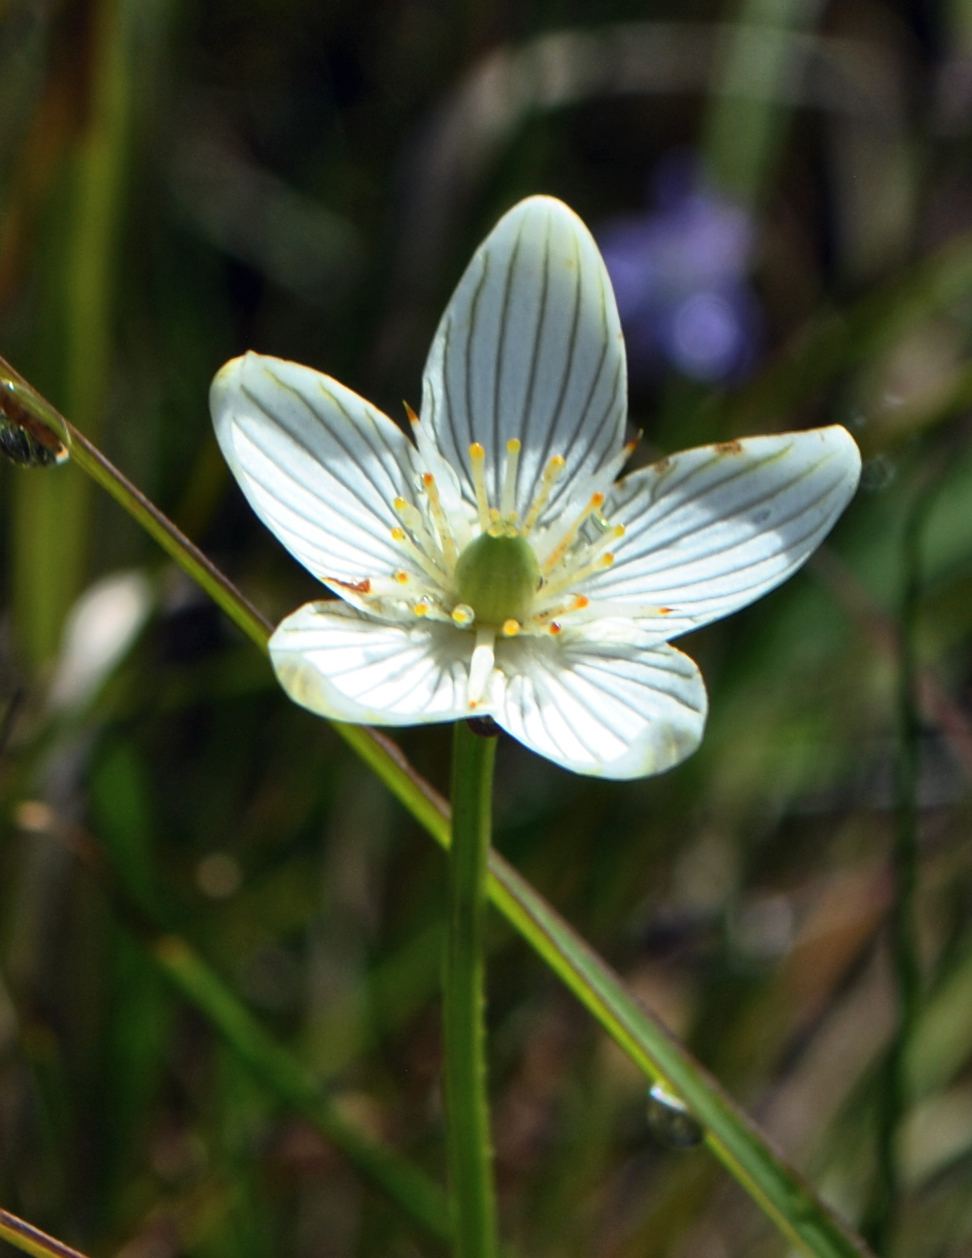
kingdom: Plantae
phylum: Tracheophyta
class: Magnoliopsida
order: Celastrales
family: Parnassiaceae
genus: Parnassia
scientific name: Parnassia glauca
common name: American grass-of-parnassus
